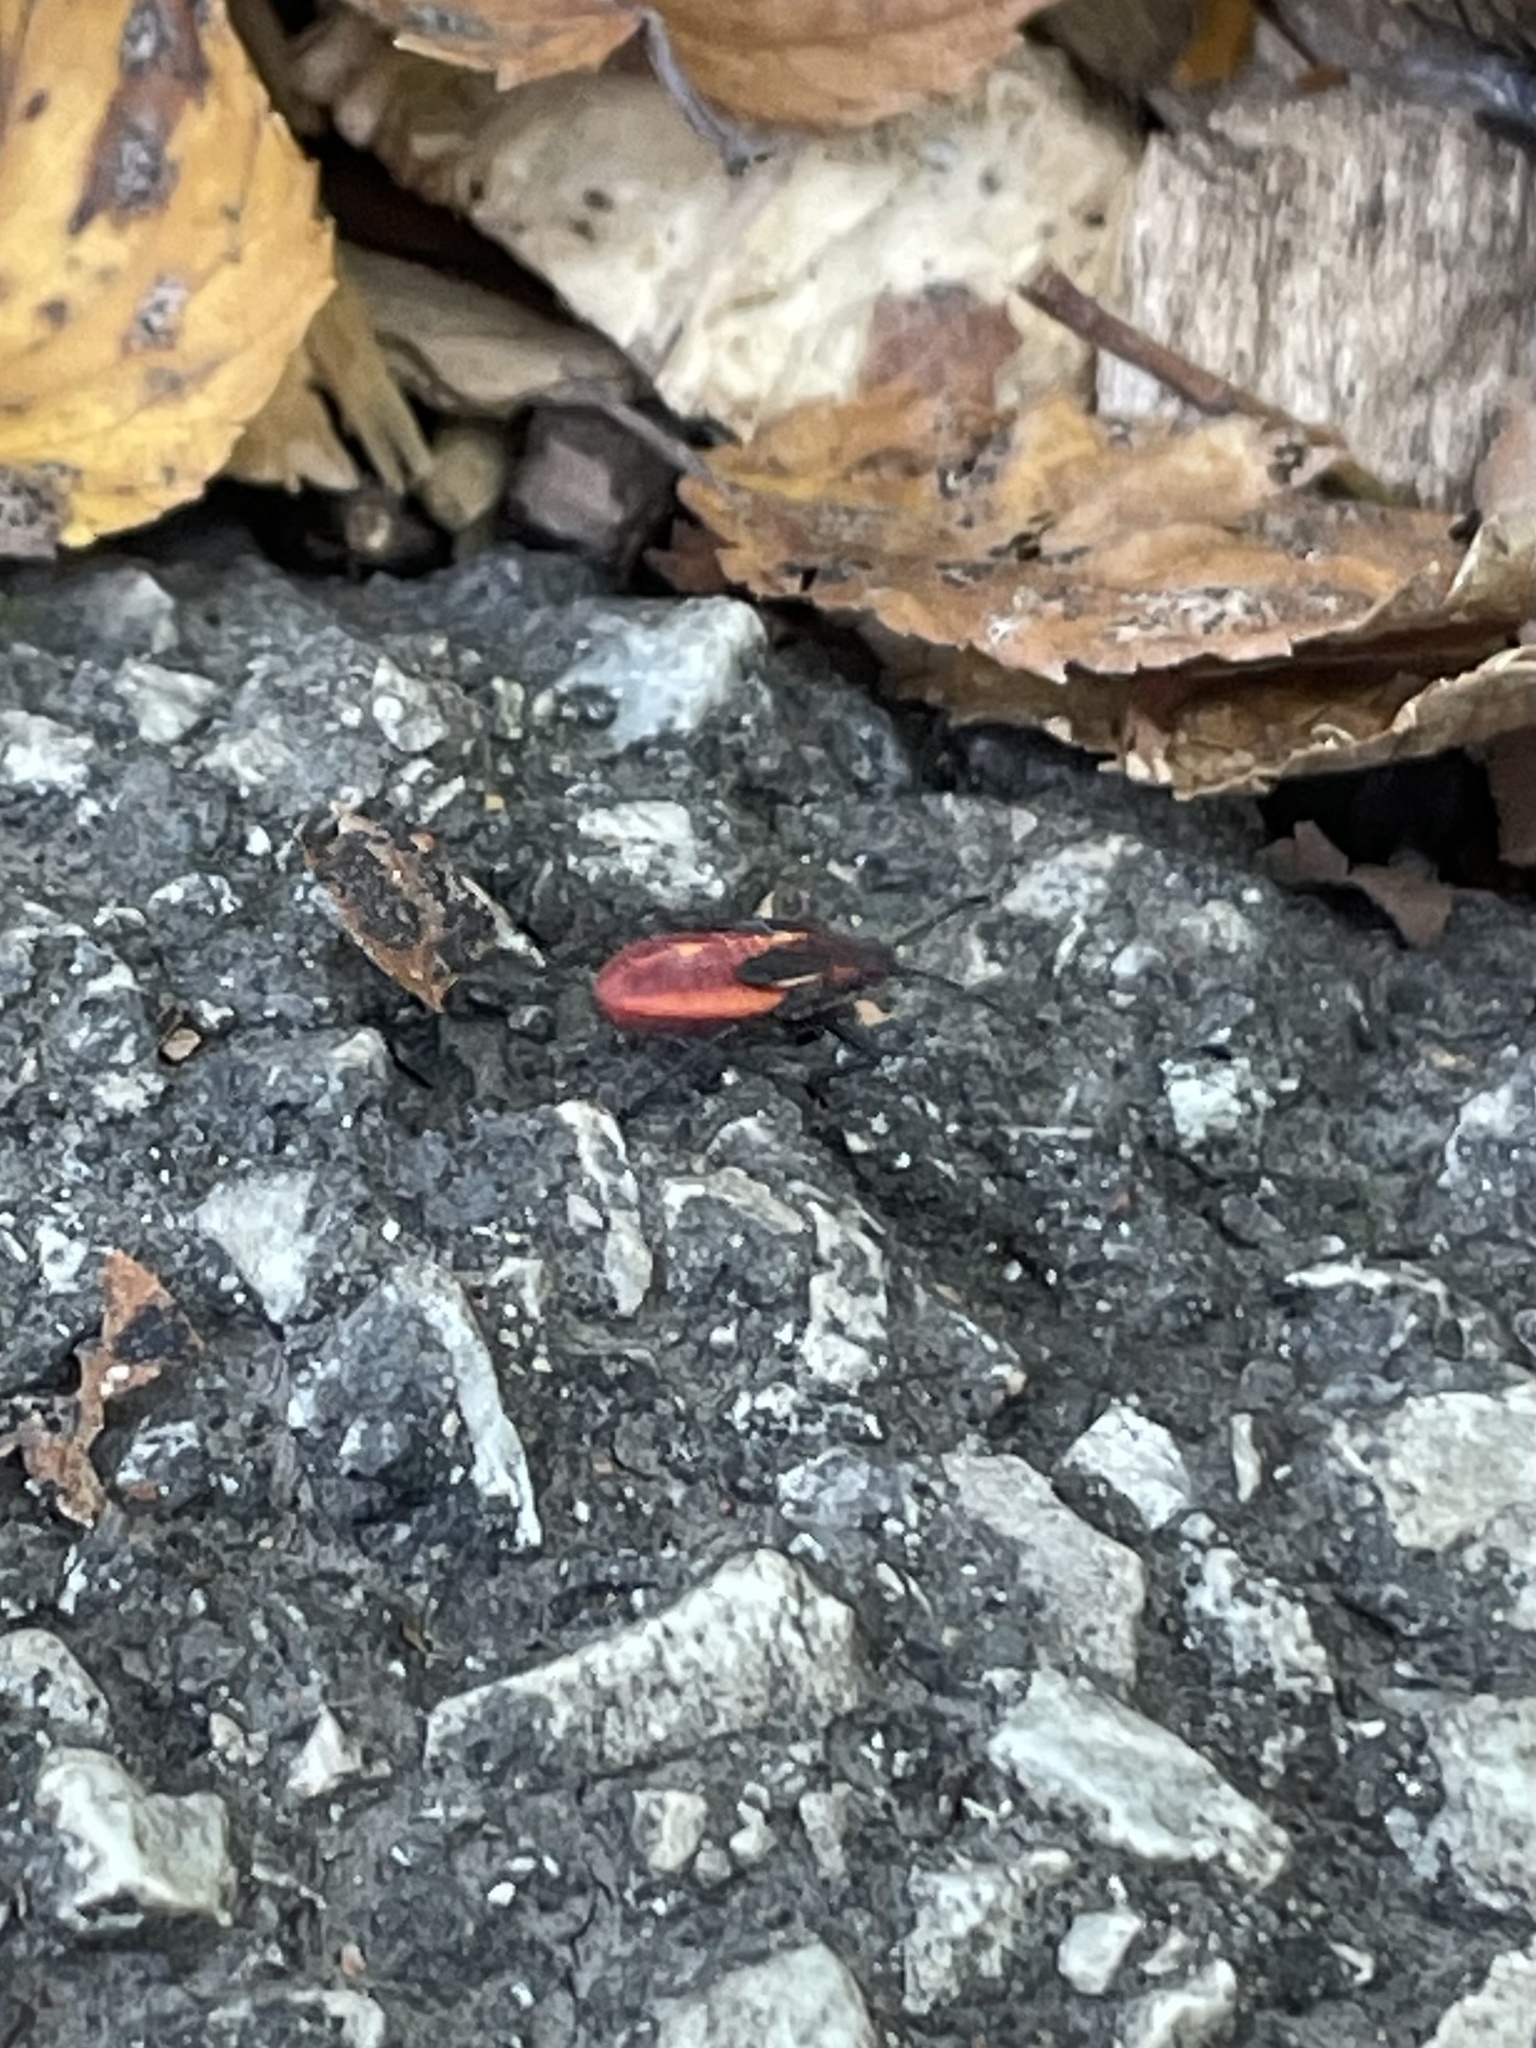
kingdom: Animalia
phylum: Arthropoda
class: Insecta
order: Hemiptera
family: Rhopalidae
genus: Boisea
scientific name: Boisea trivittata
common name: Boxelder bug
